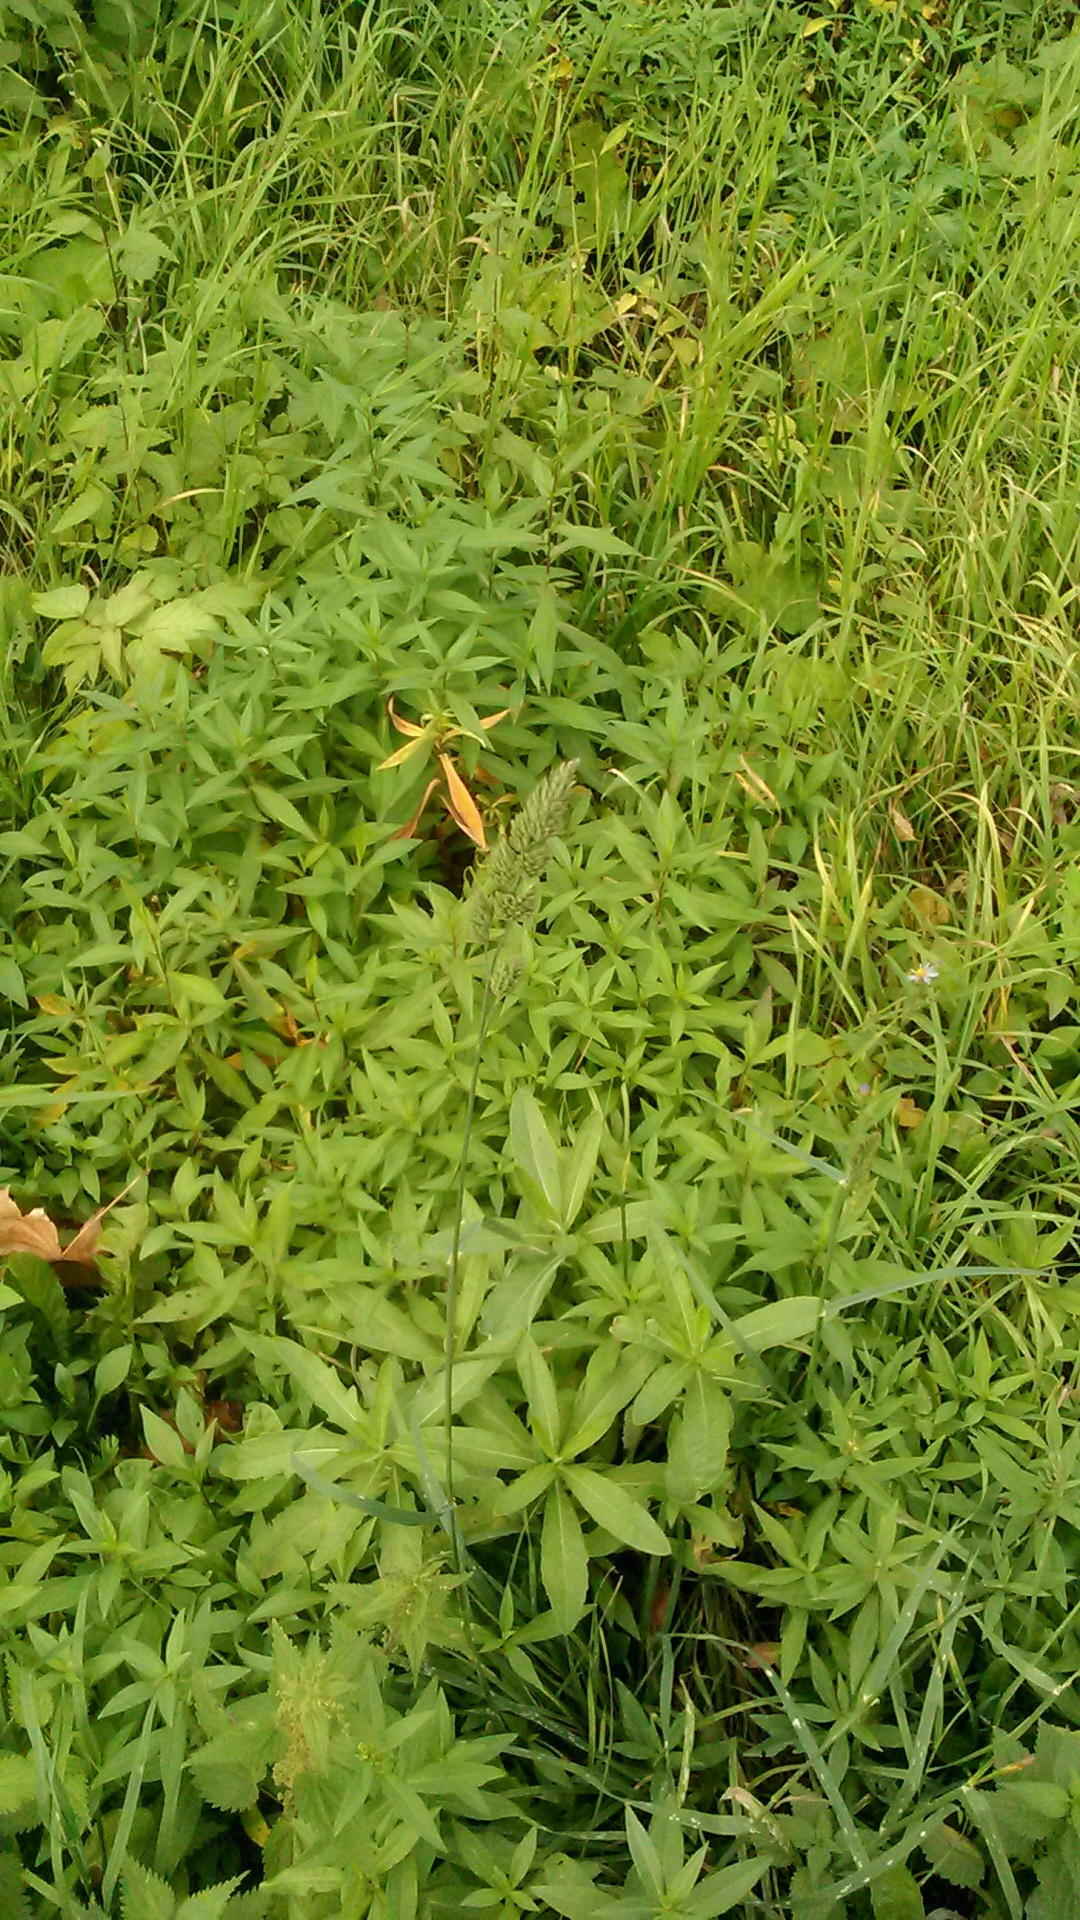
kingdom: Plantae
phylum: Tracheophyta
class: Liliopsida
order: Poales
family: Poaceae
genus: Dactylis
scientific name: Dactylis glomerata
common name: Orchardgrass
